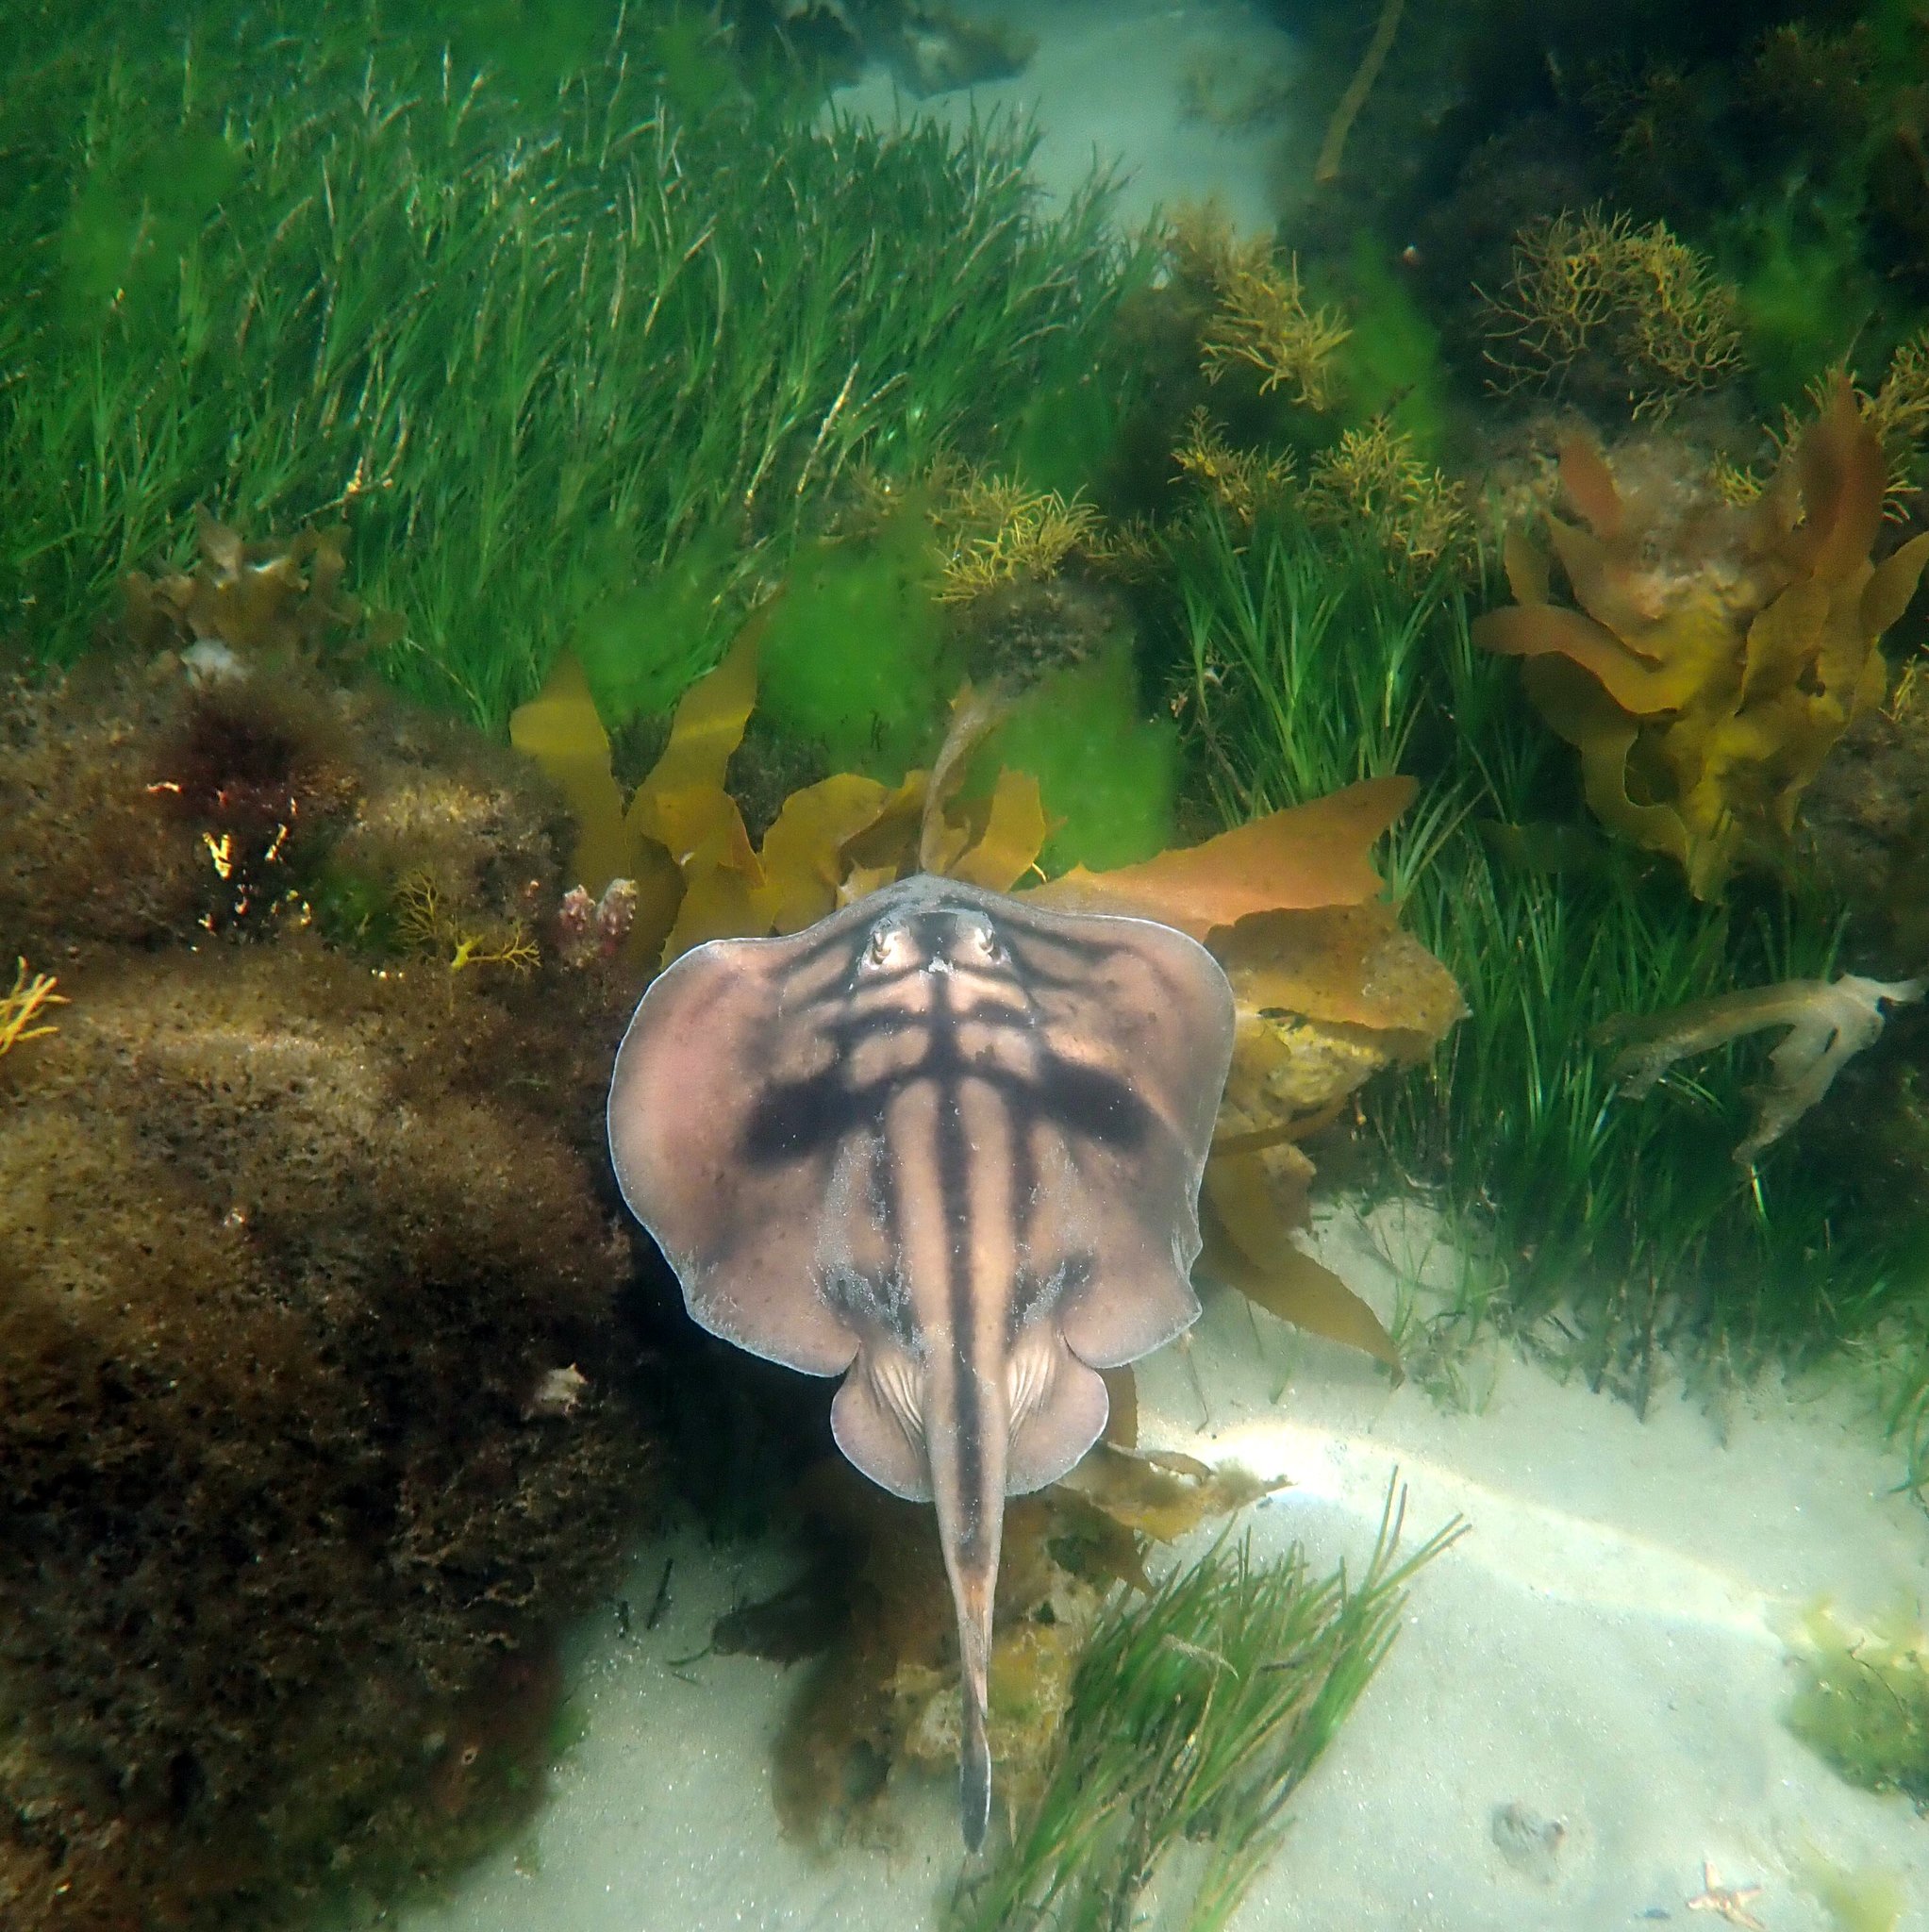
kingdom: Animalia
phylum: Chordata
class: Elasmobranchii
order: Myliobatiformes
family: Urolophidae
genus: Urolophus
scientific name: Urolophus cruciatus
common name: Banded stingaree
